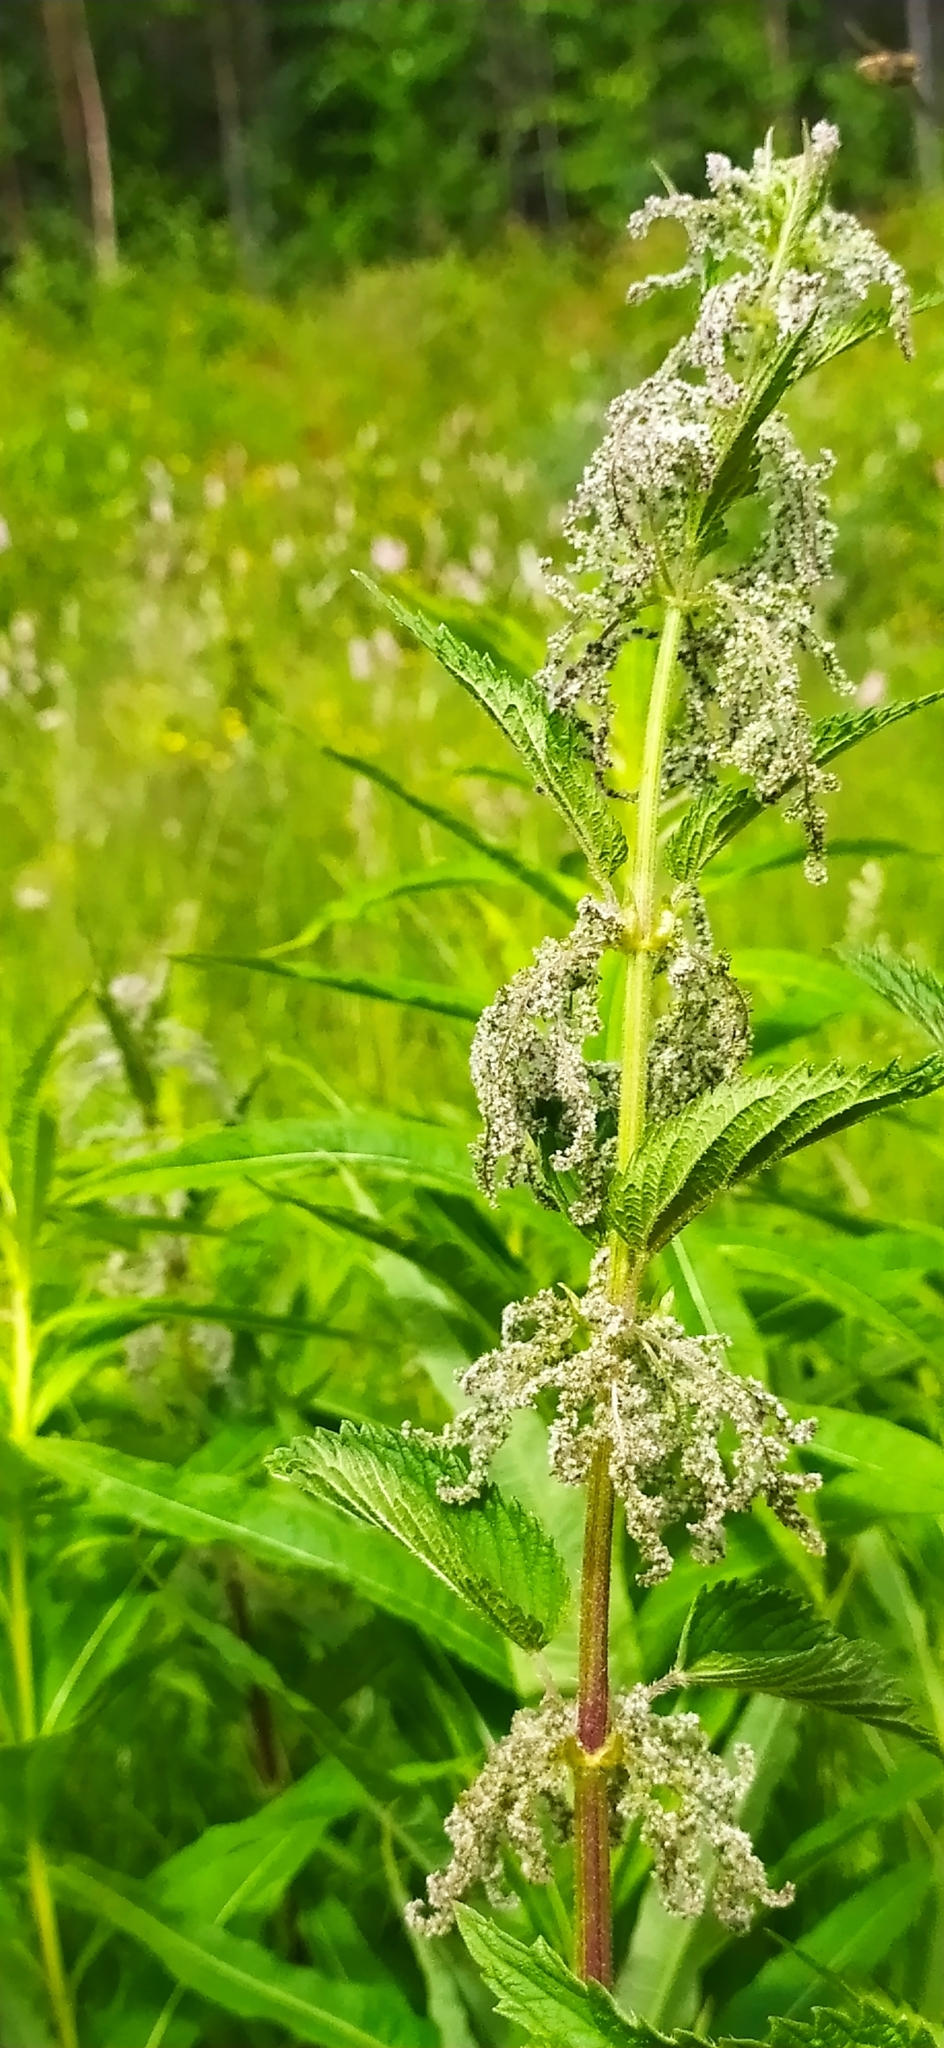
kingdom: Plantae
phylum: Tracheophyta
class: Magnoliopsida
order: Rosales
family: Urticaceae
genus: Urtica
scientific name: Urtica dioica
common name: Common nettle
